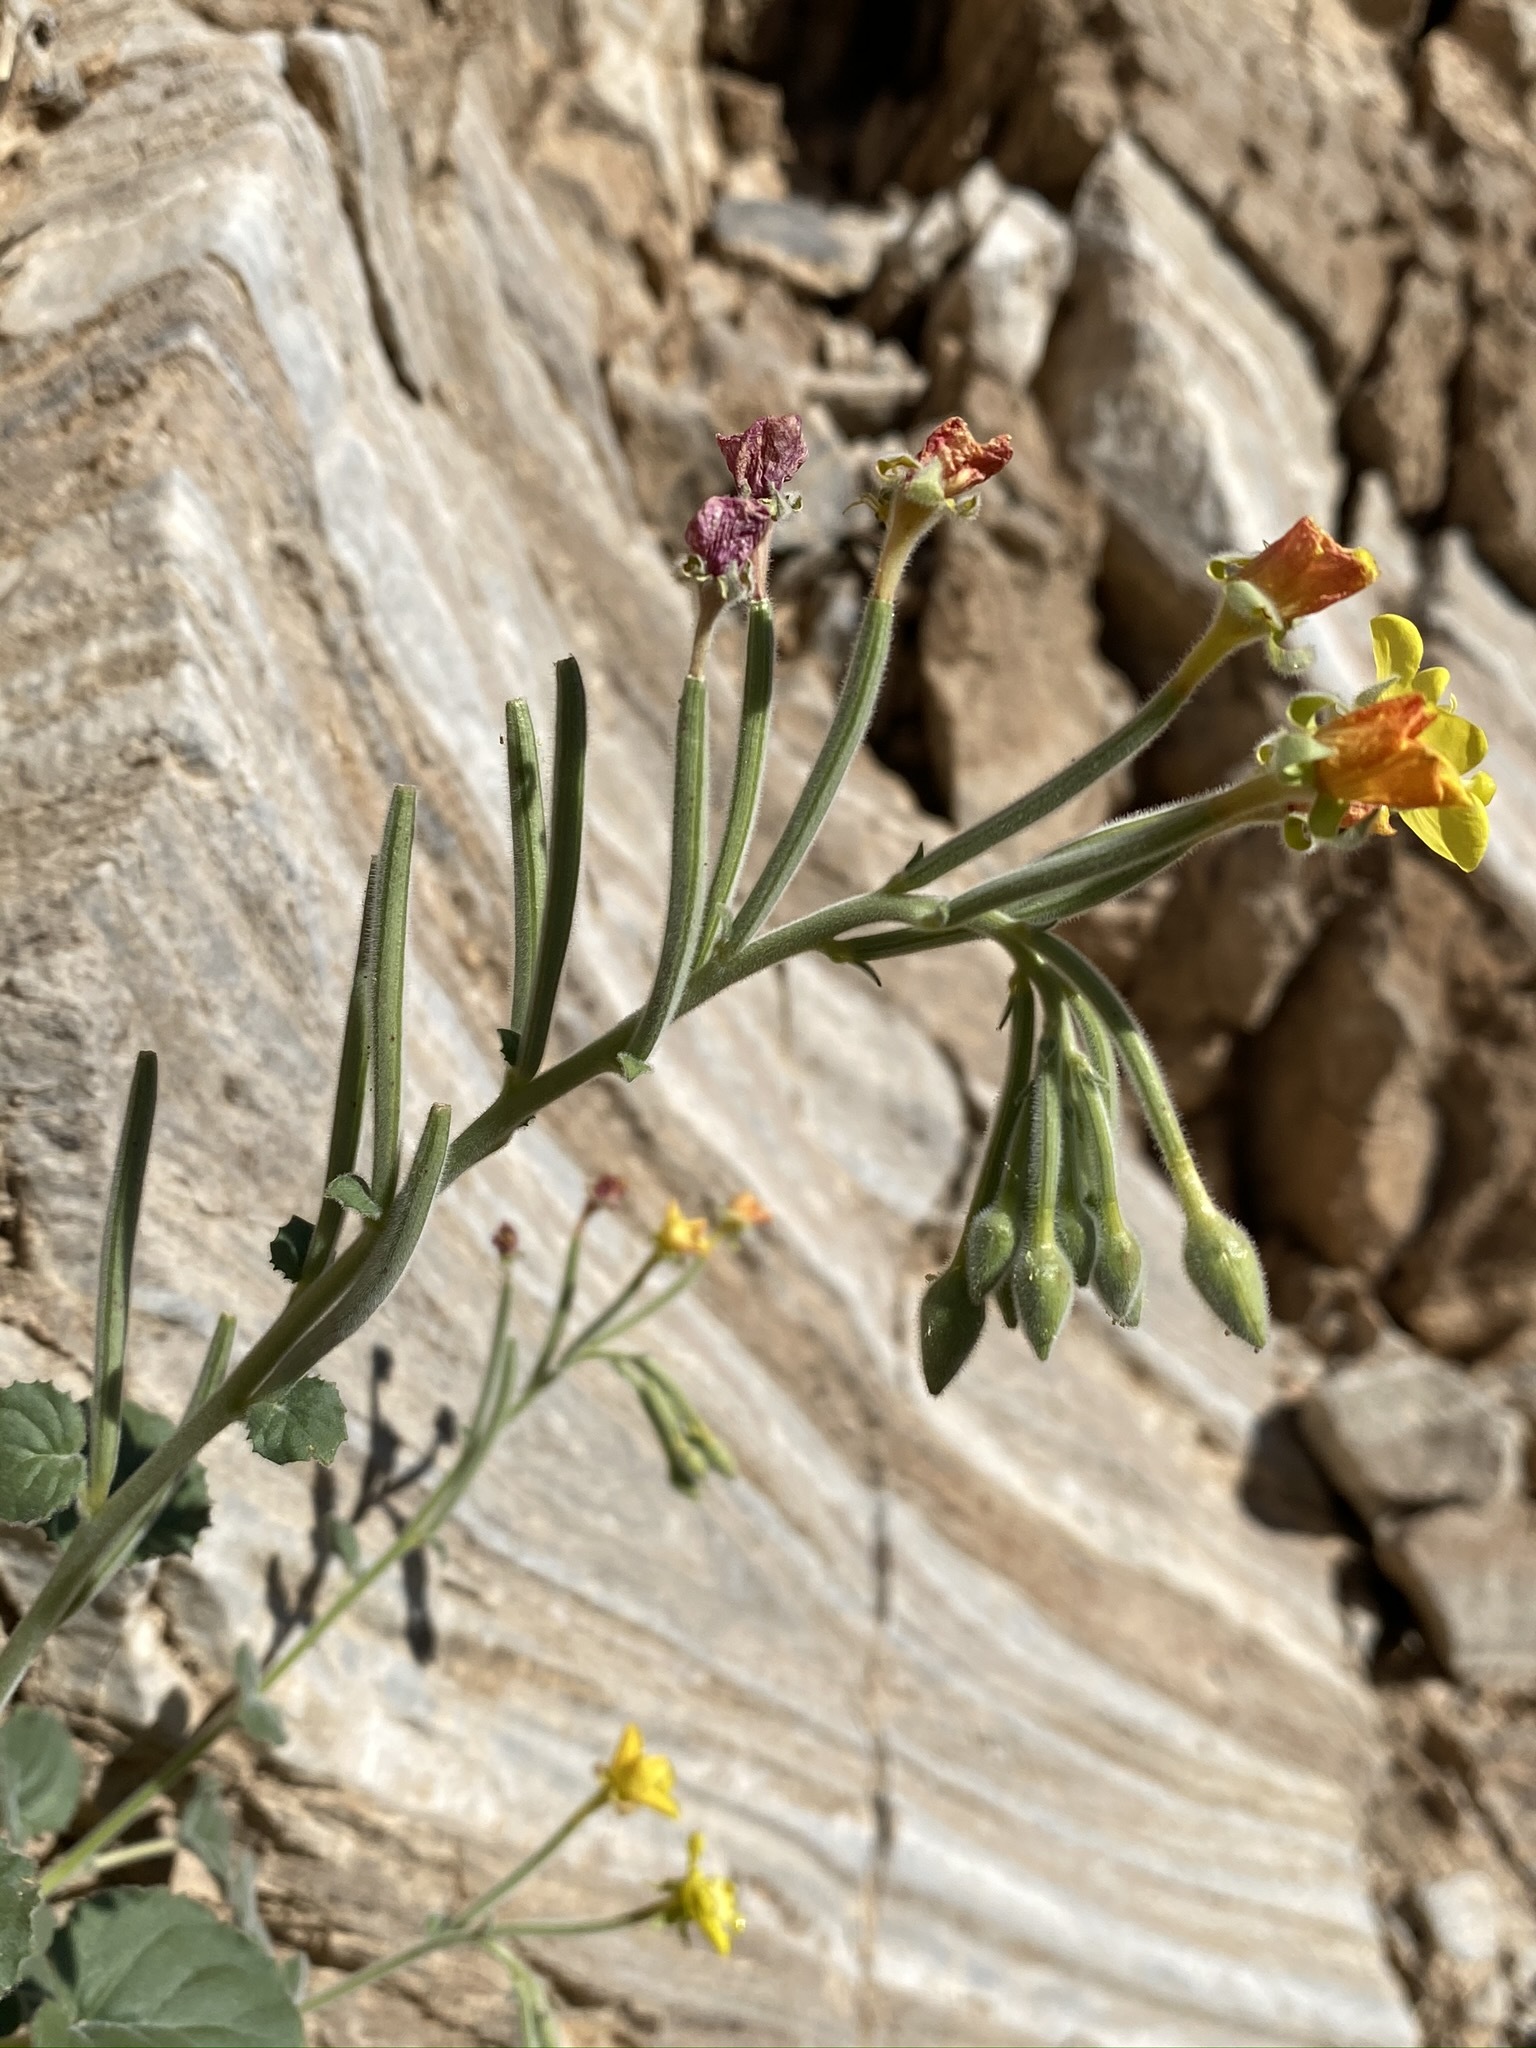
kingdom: Plantae
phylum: Tracheophyta
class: Magnoliopsida
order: Myrtales
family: Onagraceae
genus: Chylismia
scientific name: Chylismia cardiophylla
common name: Heartleaf suncup
